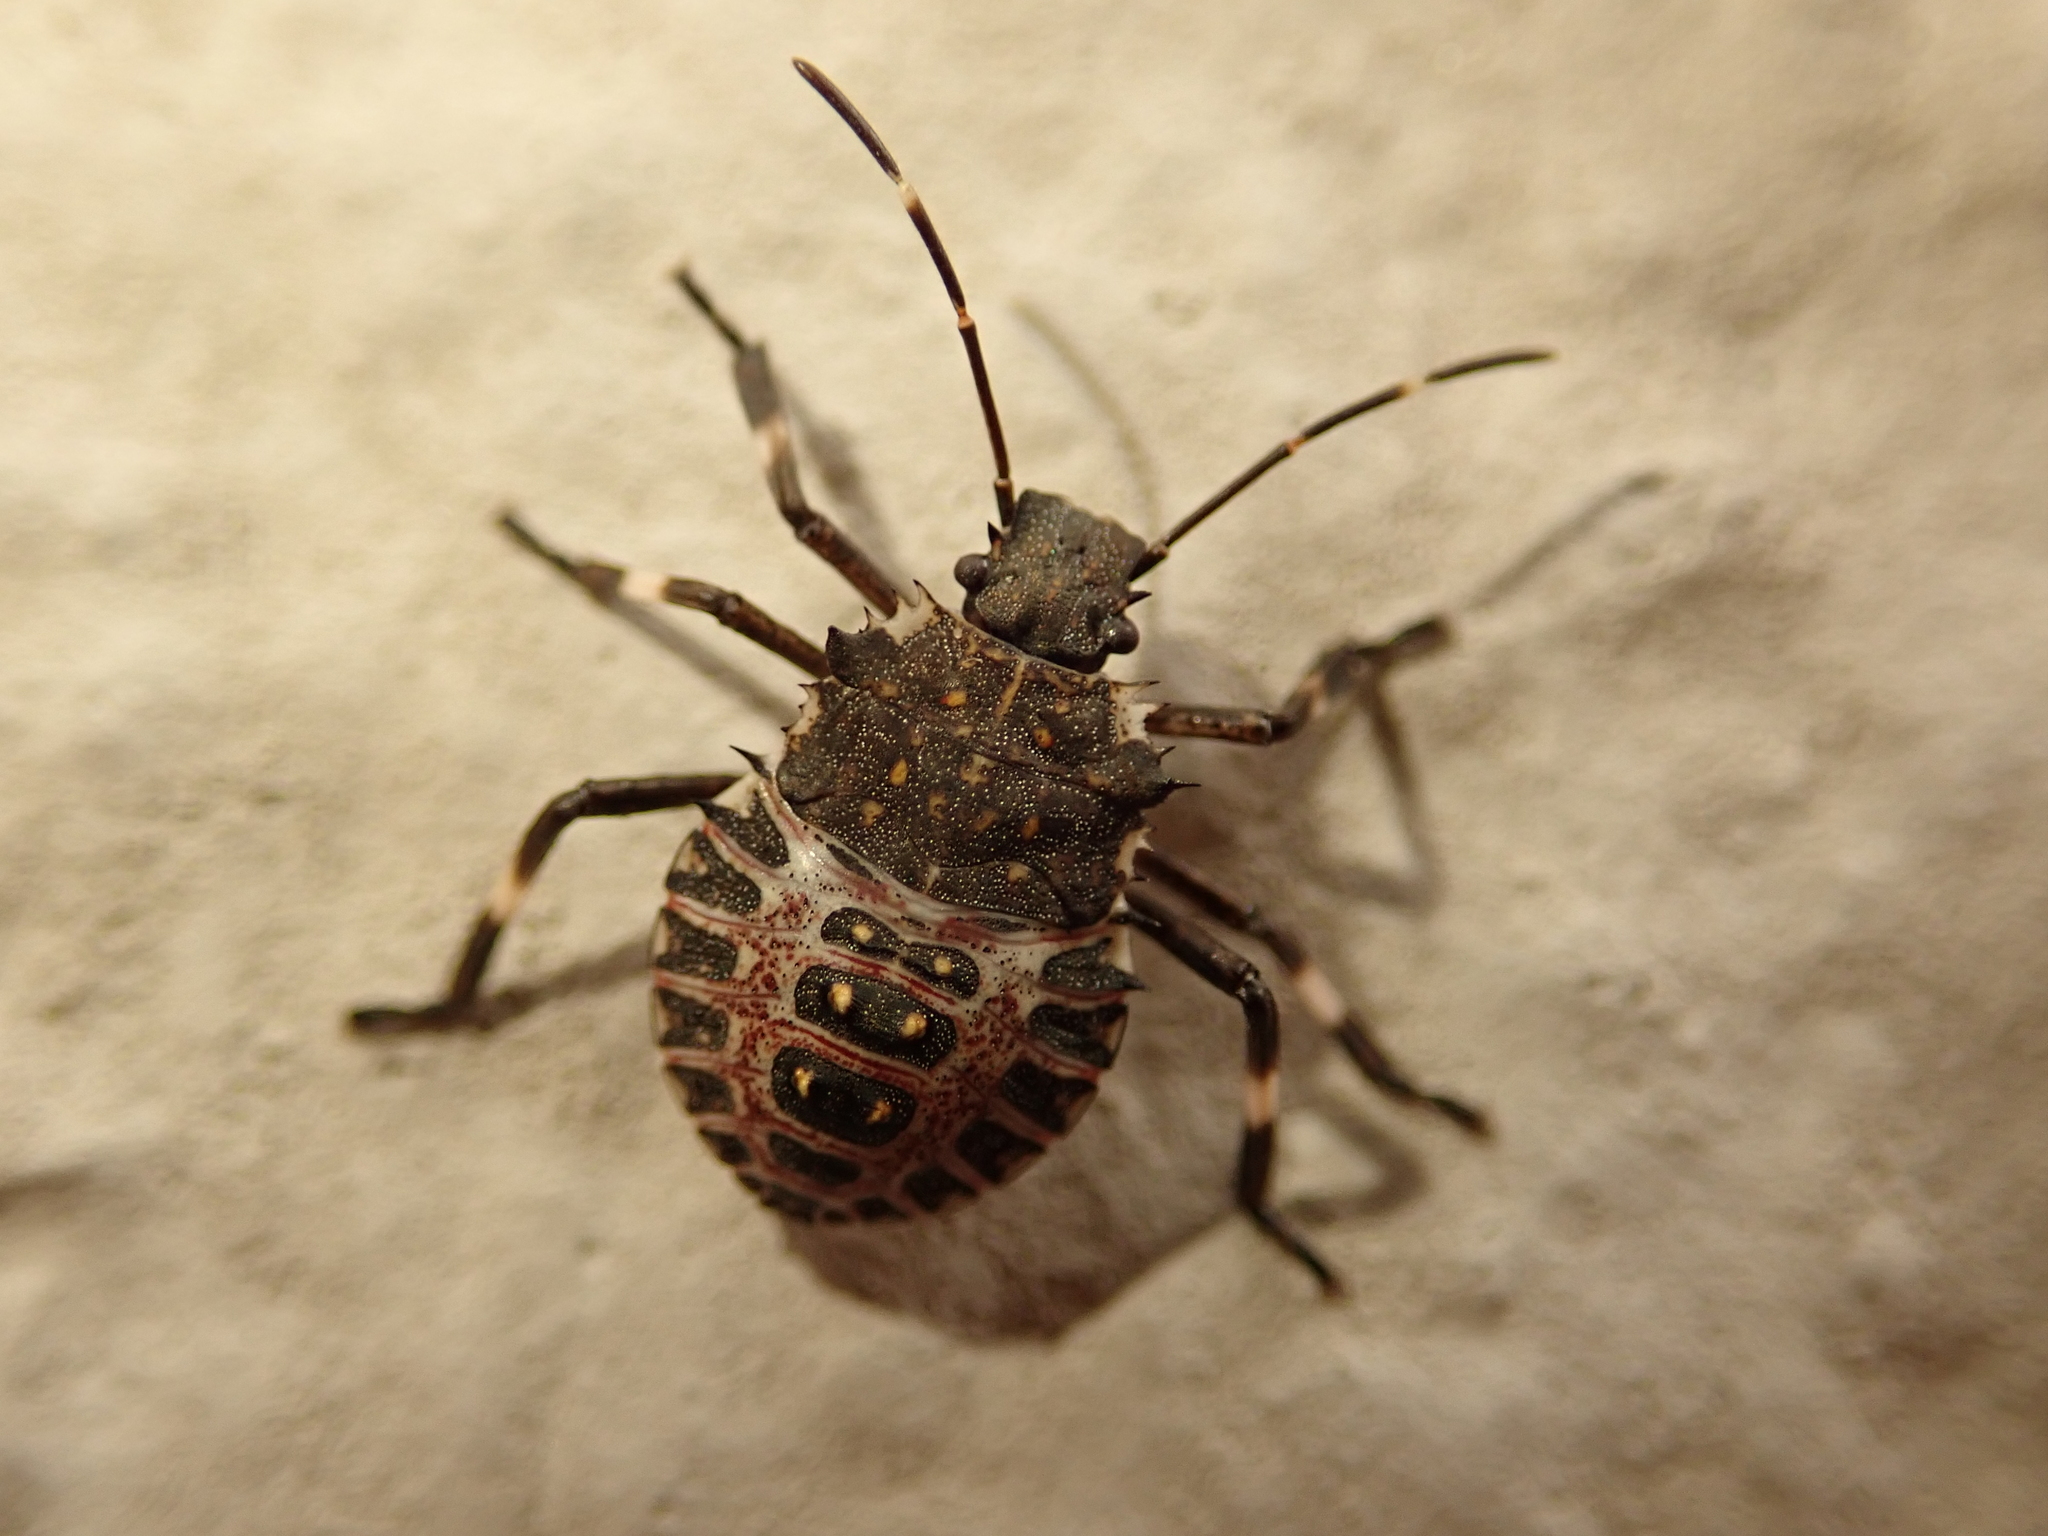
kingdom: Animalia
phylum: Arthropoda
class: Insecta
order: Hemiptera
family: Pentatomidae
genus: Halyomorpha
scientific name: Halyomorpha halys
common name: Brown marmorated stink bug
